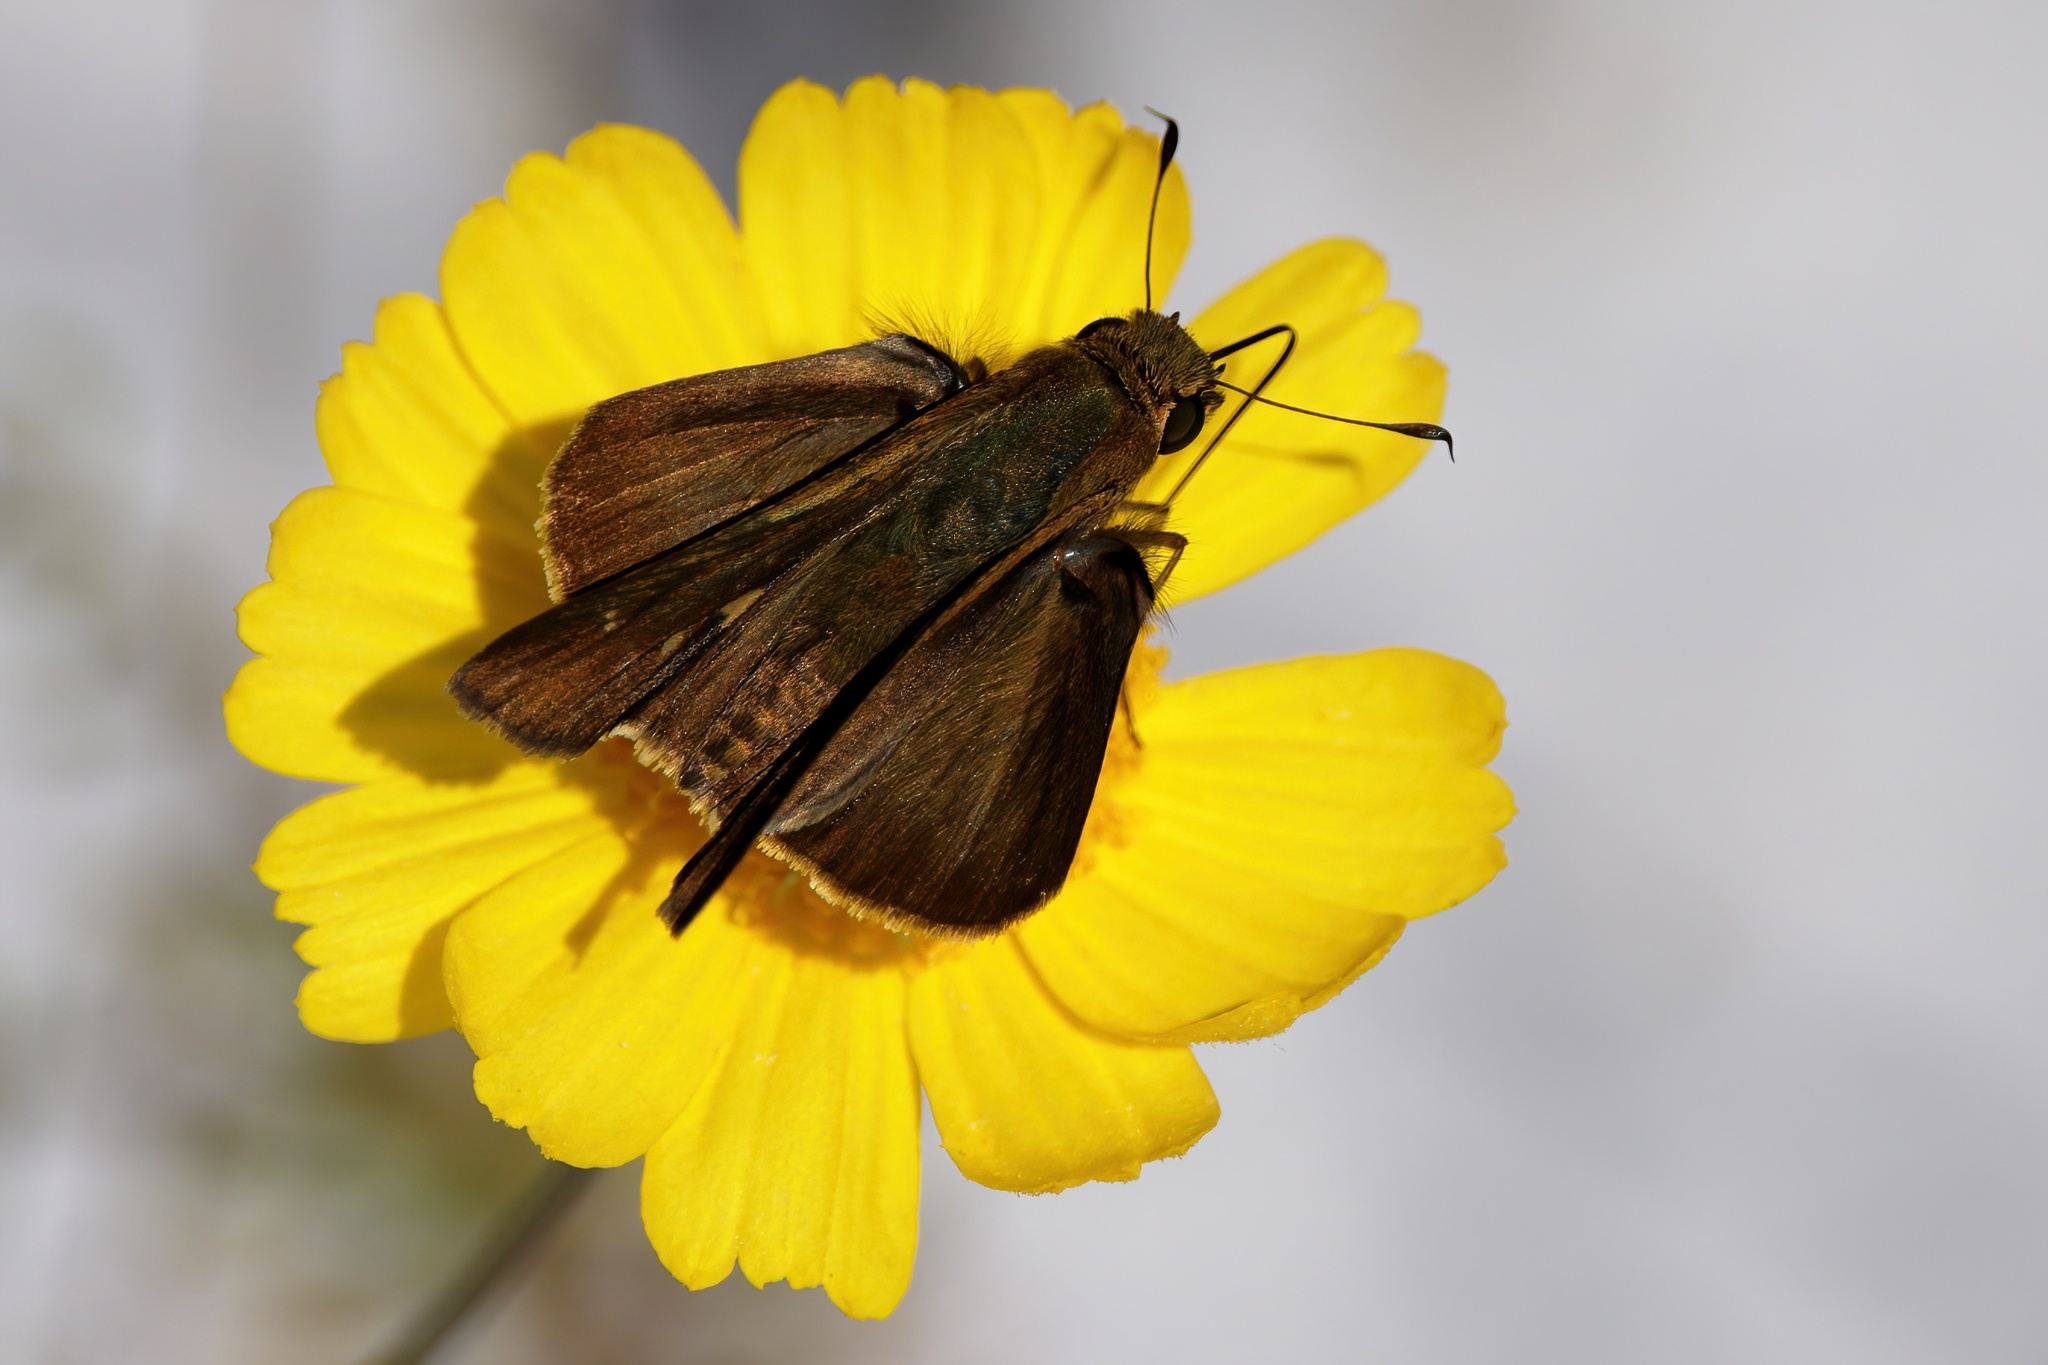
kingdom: Animalia
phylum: Arthropoda
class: Insecta
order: Lepidoptera
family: Hesperiidae
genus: Panoquina
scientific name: Panoquina ocola
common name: Ocola skipper
